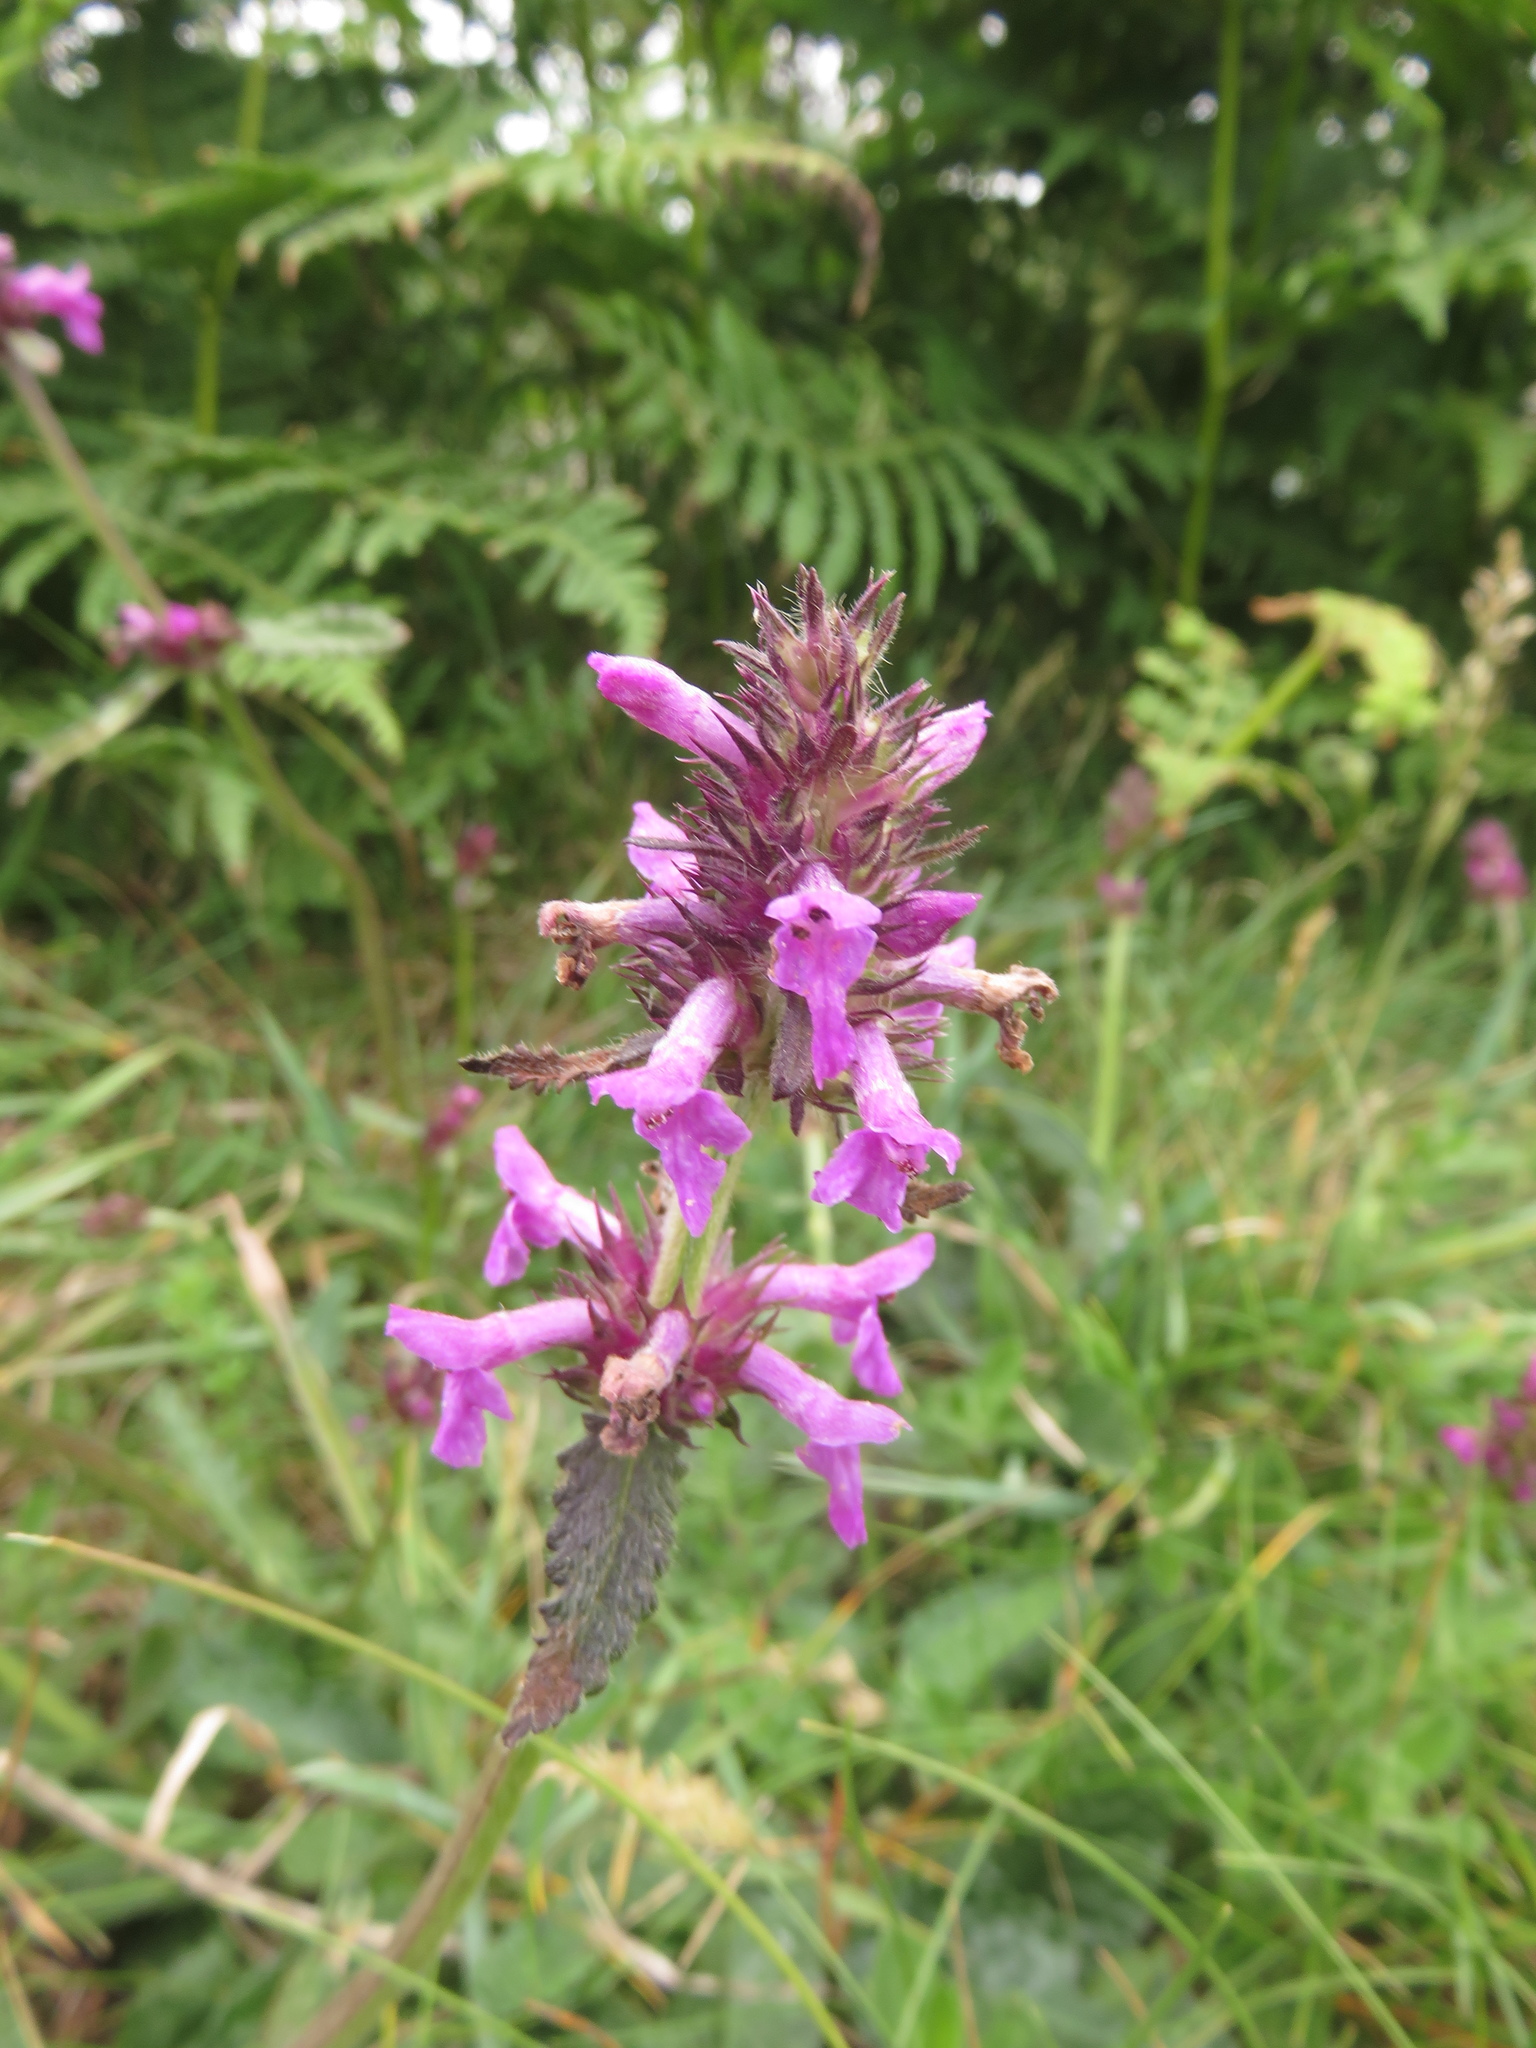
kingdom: Plantae
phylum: Tracheophyta
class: Magnoliopsida
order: Lamiales
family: Lamiaceae
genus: Betonica
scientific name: Betonica officinalis
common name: Bishop's-wort
